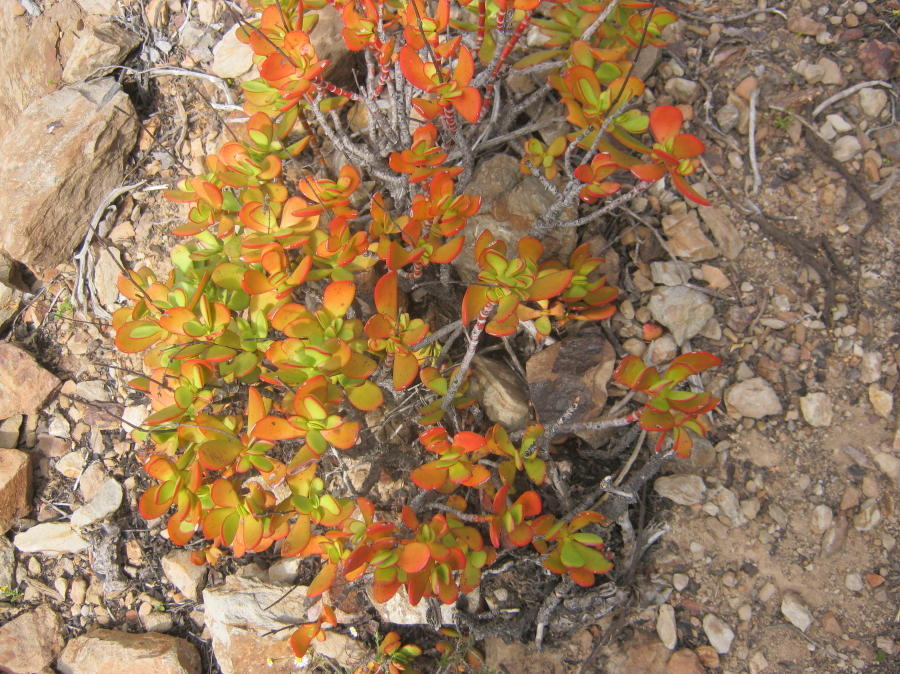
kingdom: Plantae
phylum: Tracheophyta
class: Magnoliopsida
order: Saxifragales
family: Crassulaceae
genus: Crassula
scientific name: Crassula cultrata
